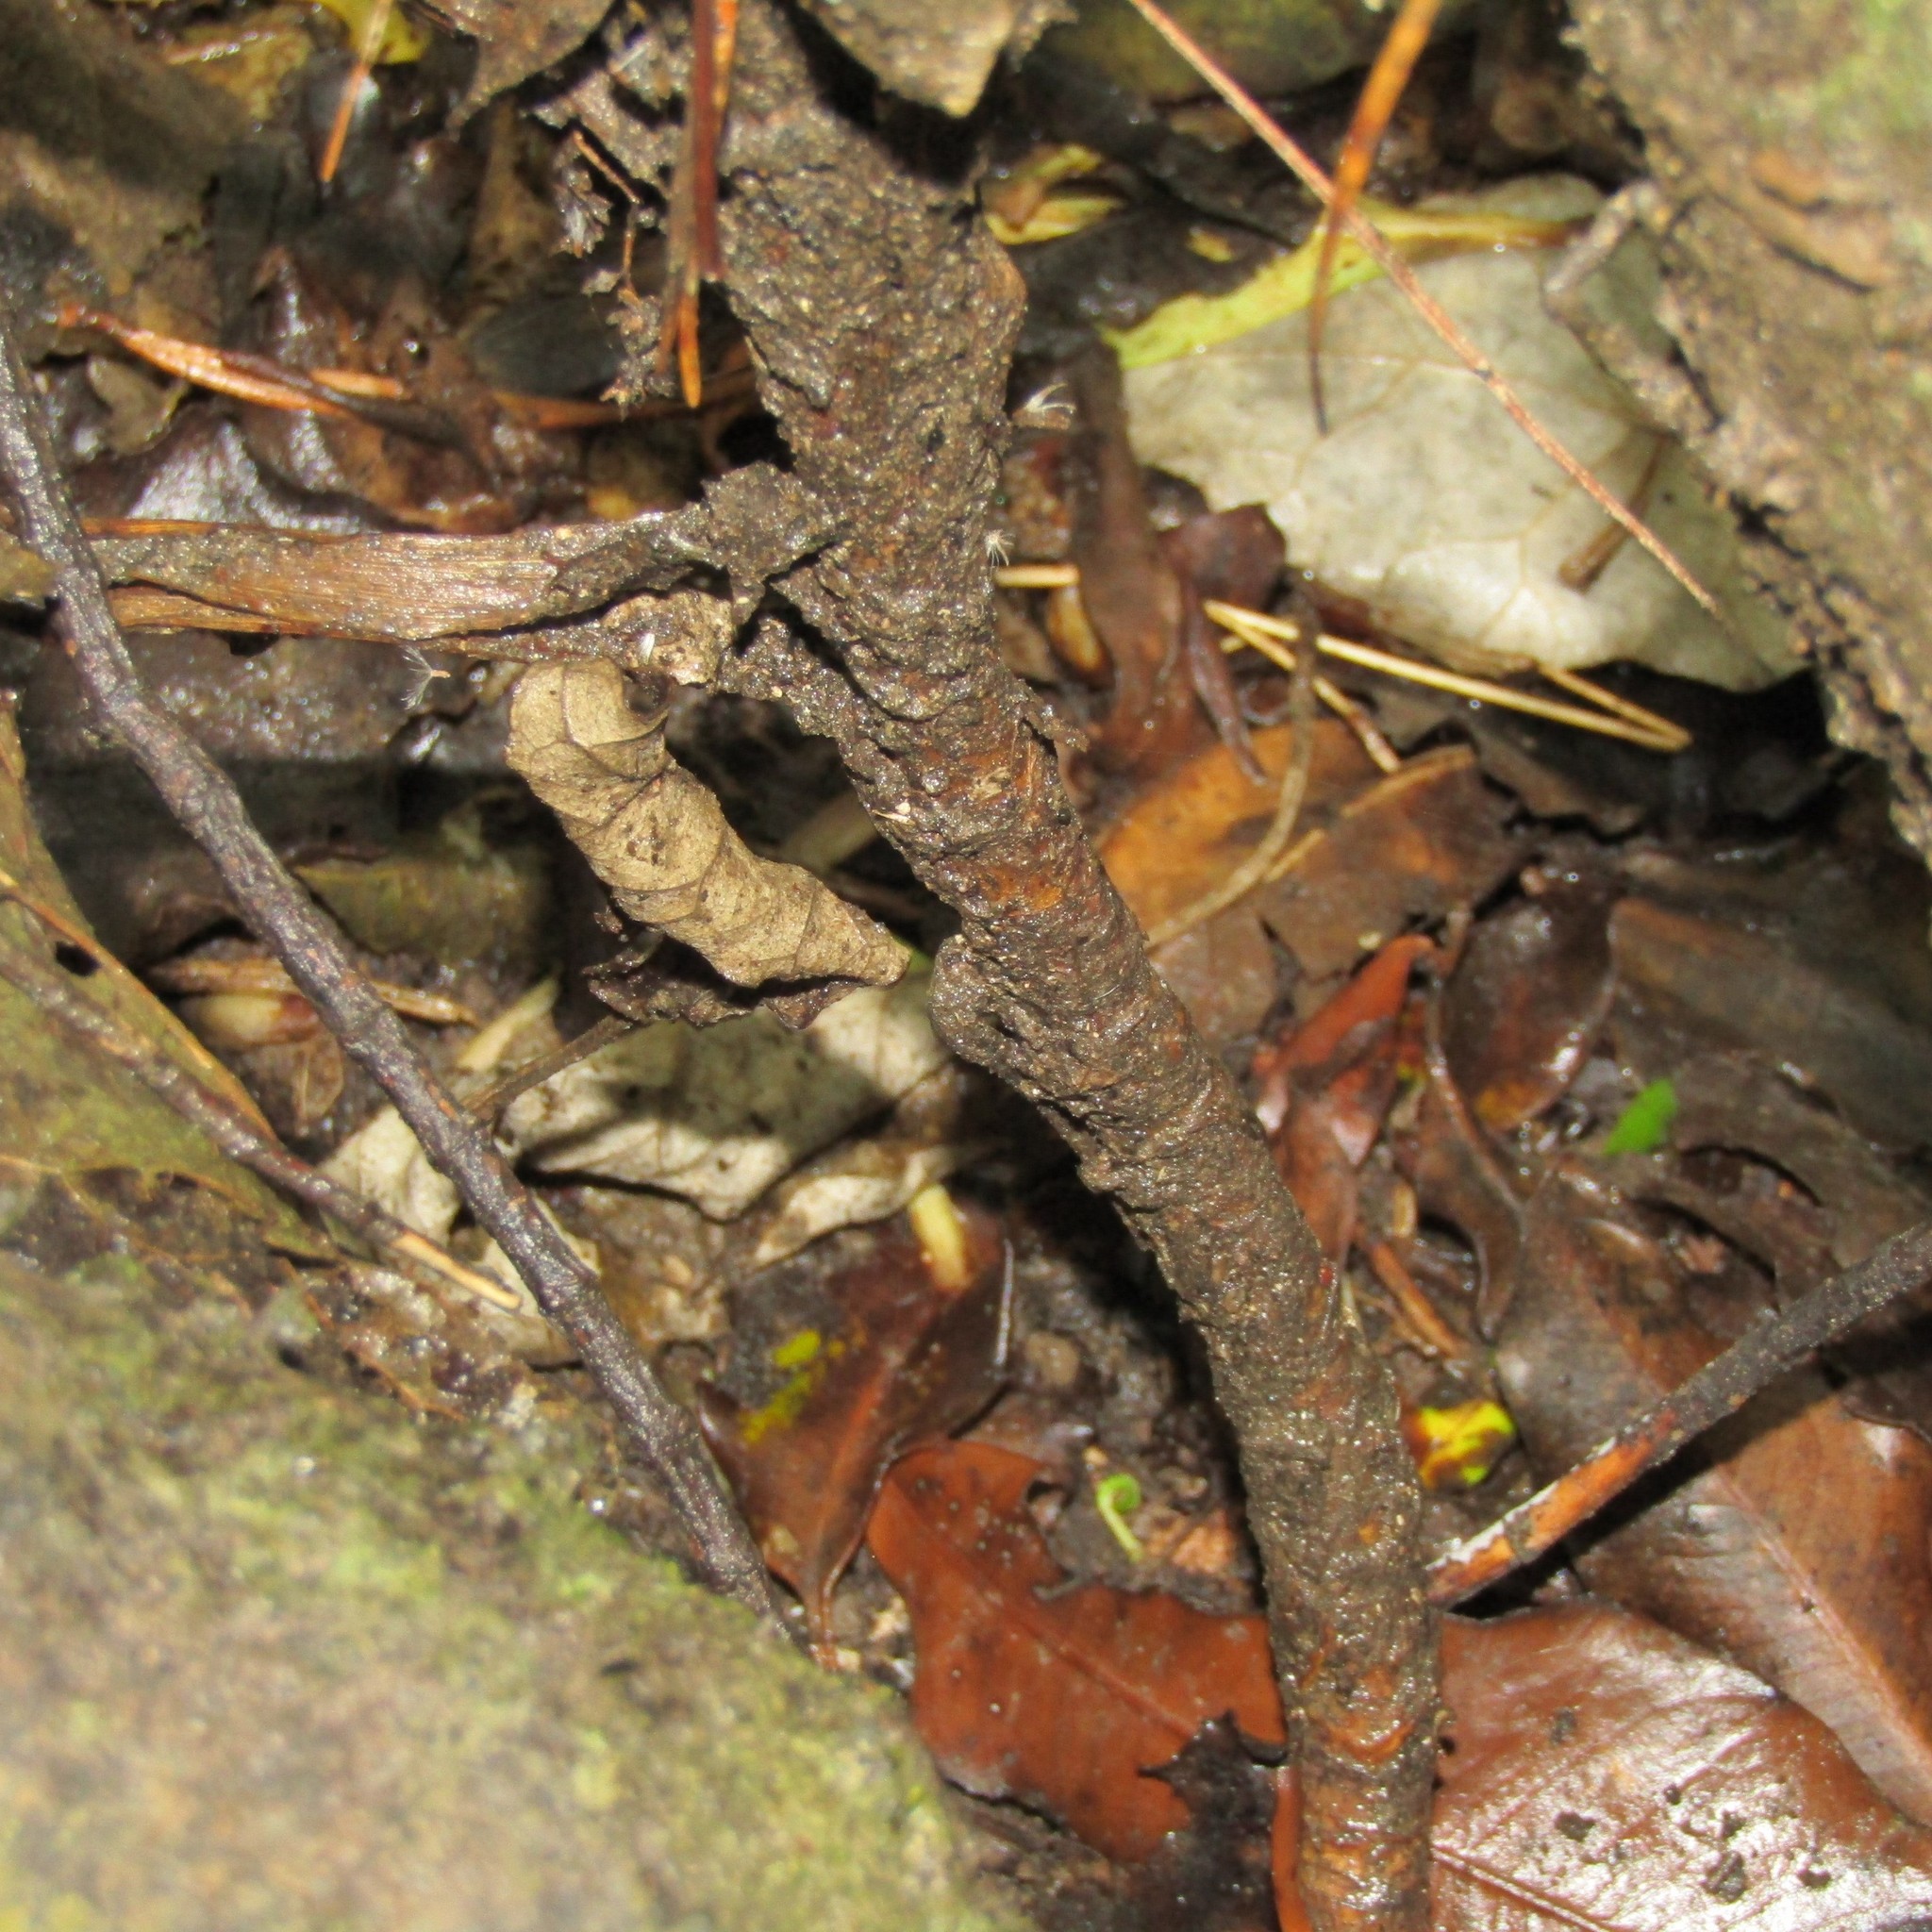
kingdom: Plantae
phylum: Tracheophyta
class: Liliopsida
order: Asparagales
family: Asparagaceae
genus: Cordyline
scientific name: Cordyline banksii
